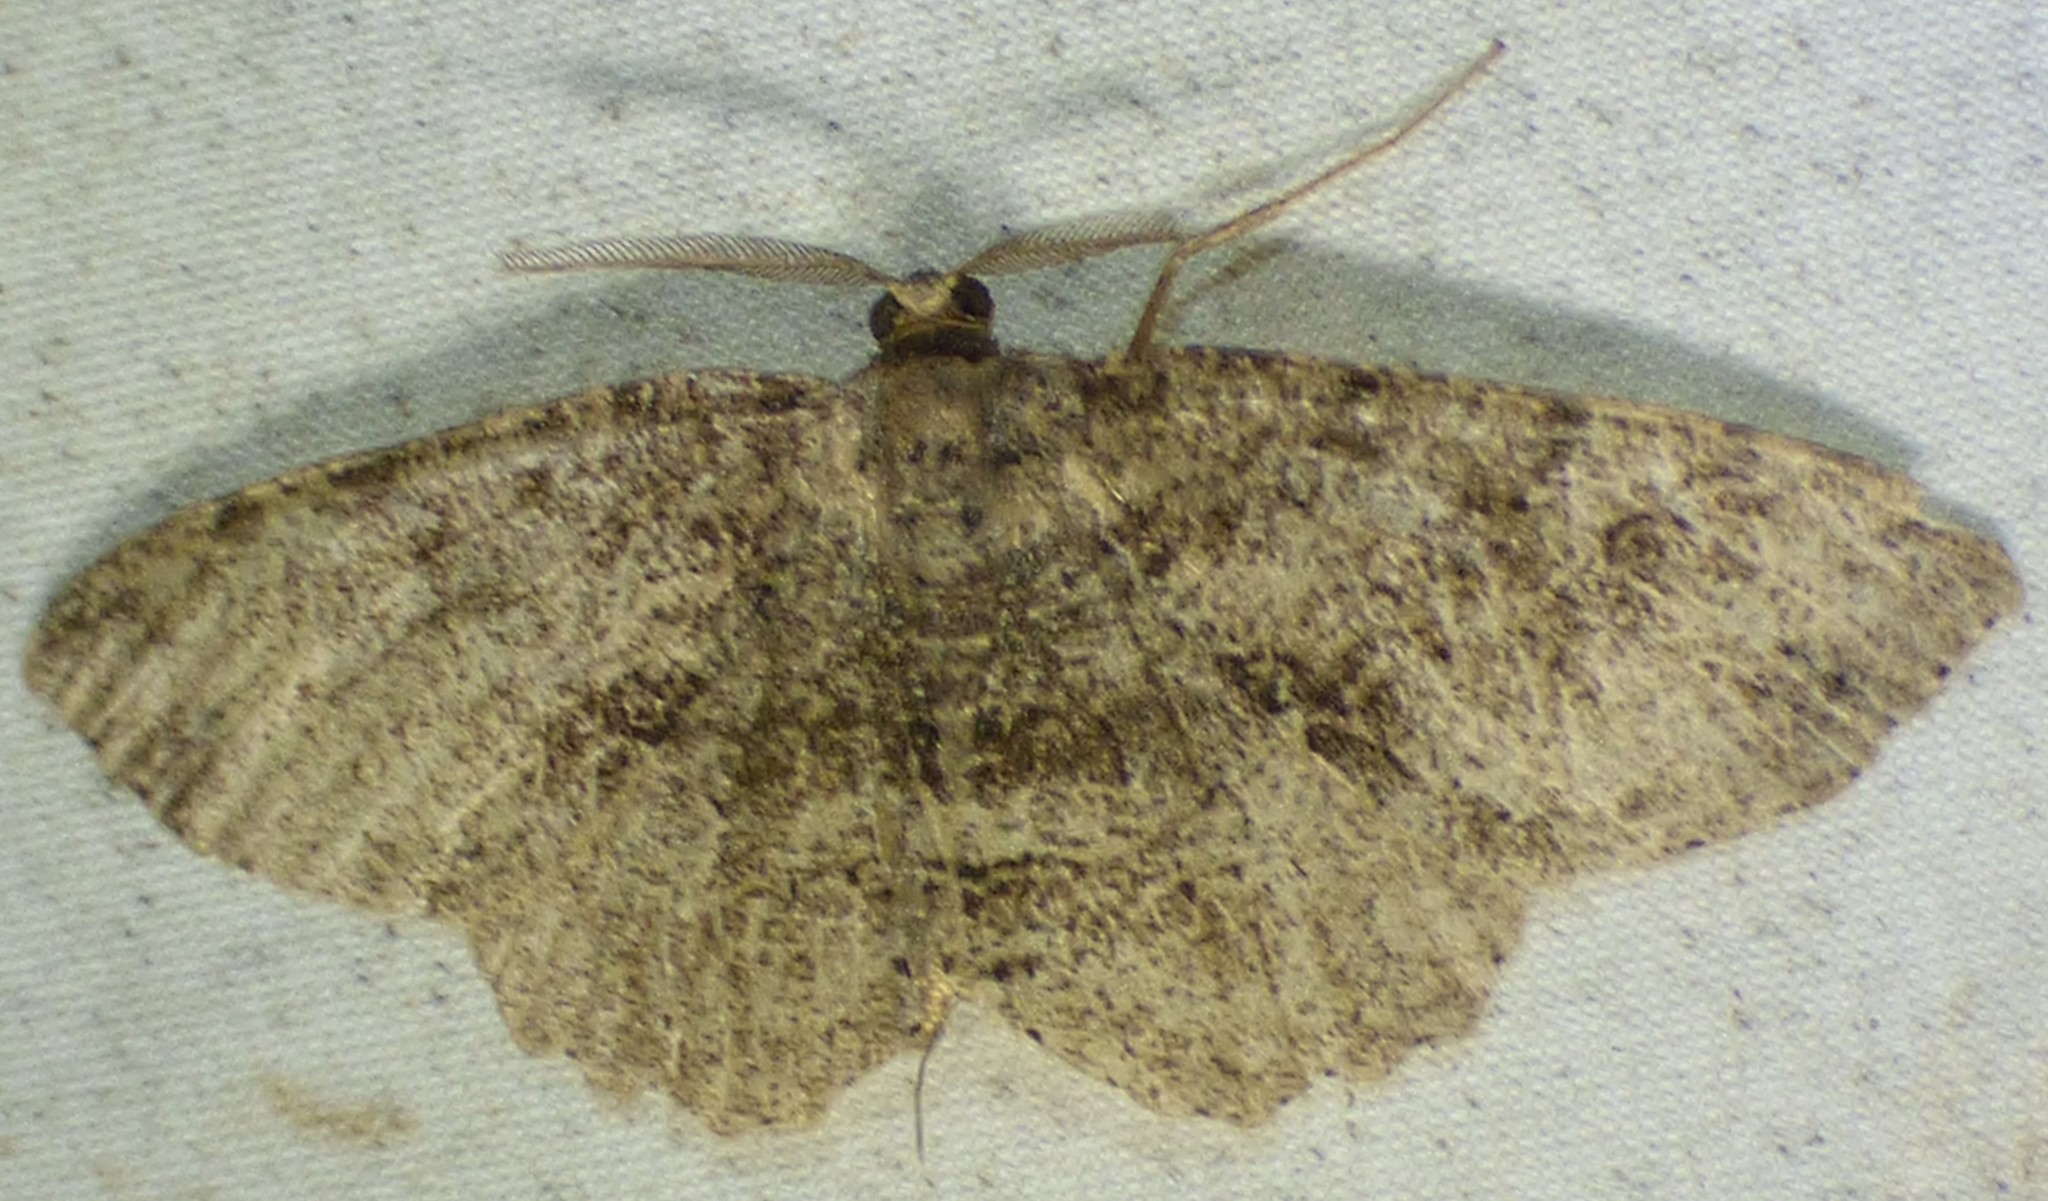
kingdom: Animalia
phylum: Arthropoda
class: Insecta
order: Lepidoptera
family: Geometridae
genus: Melanolophia
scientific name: Melanolophia canadaria
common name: Canadian melanolophia
